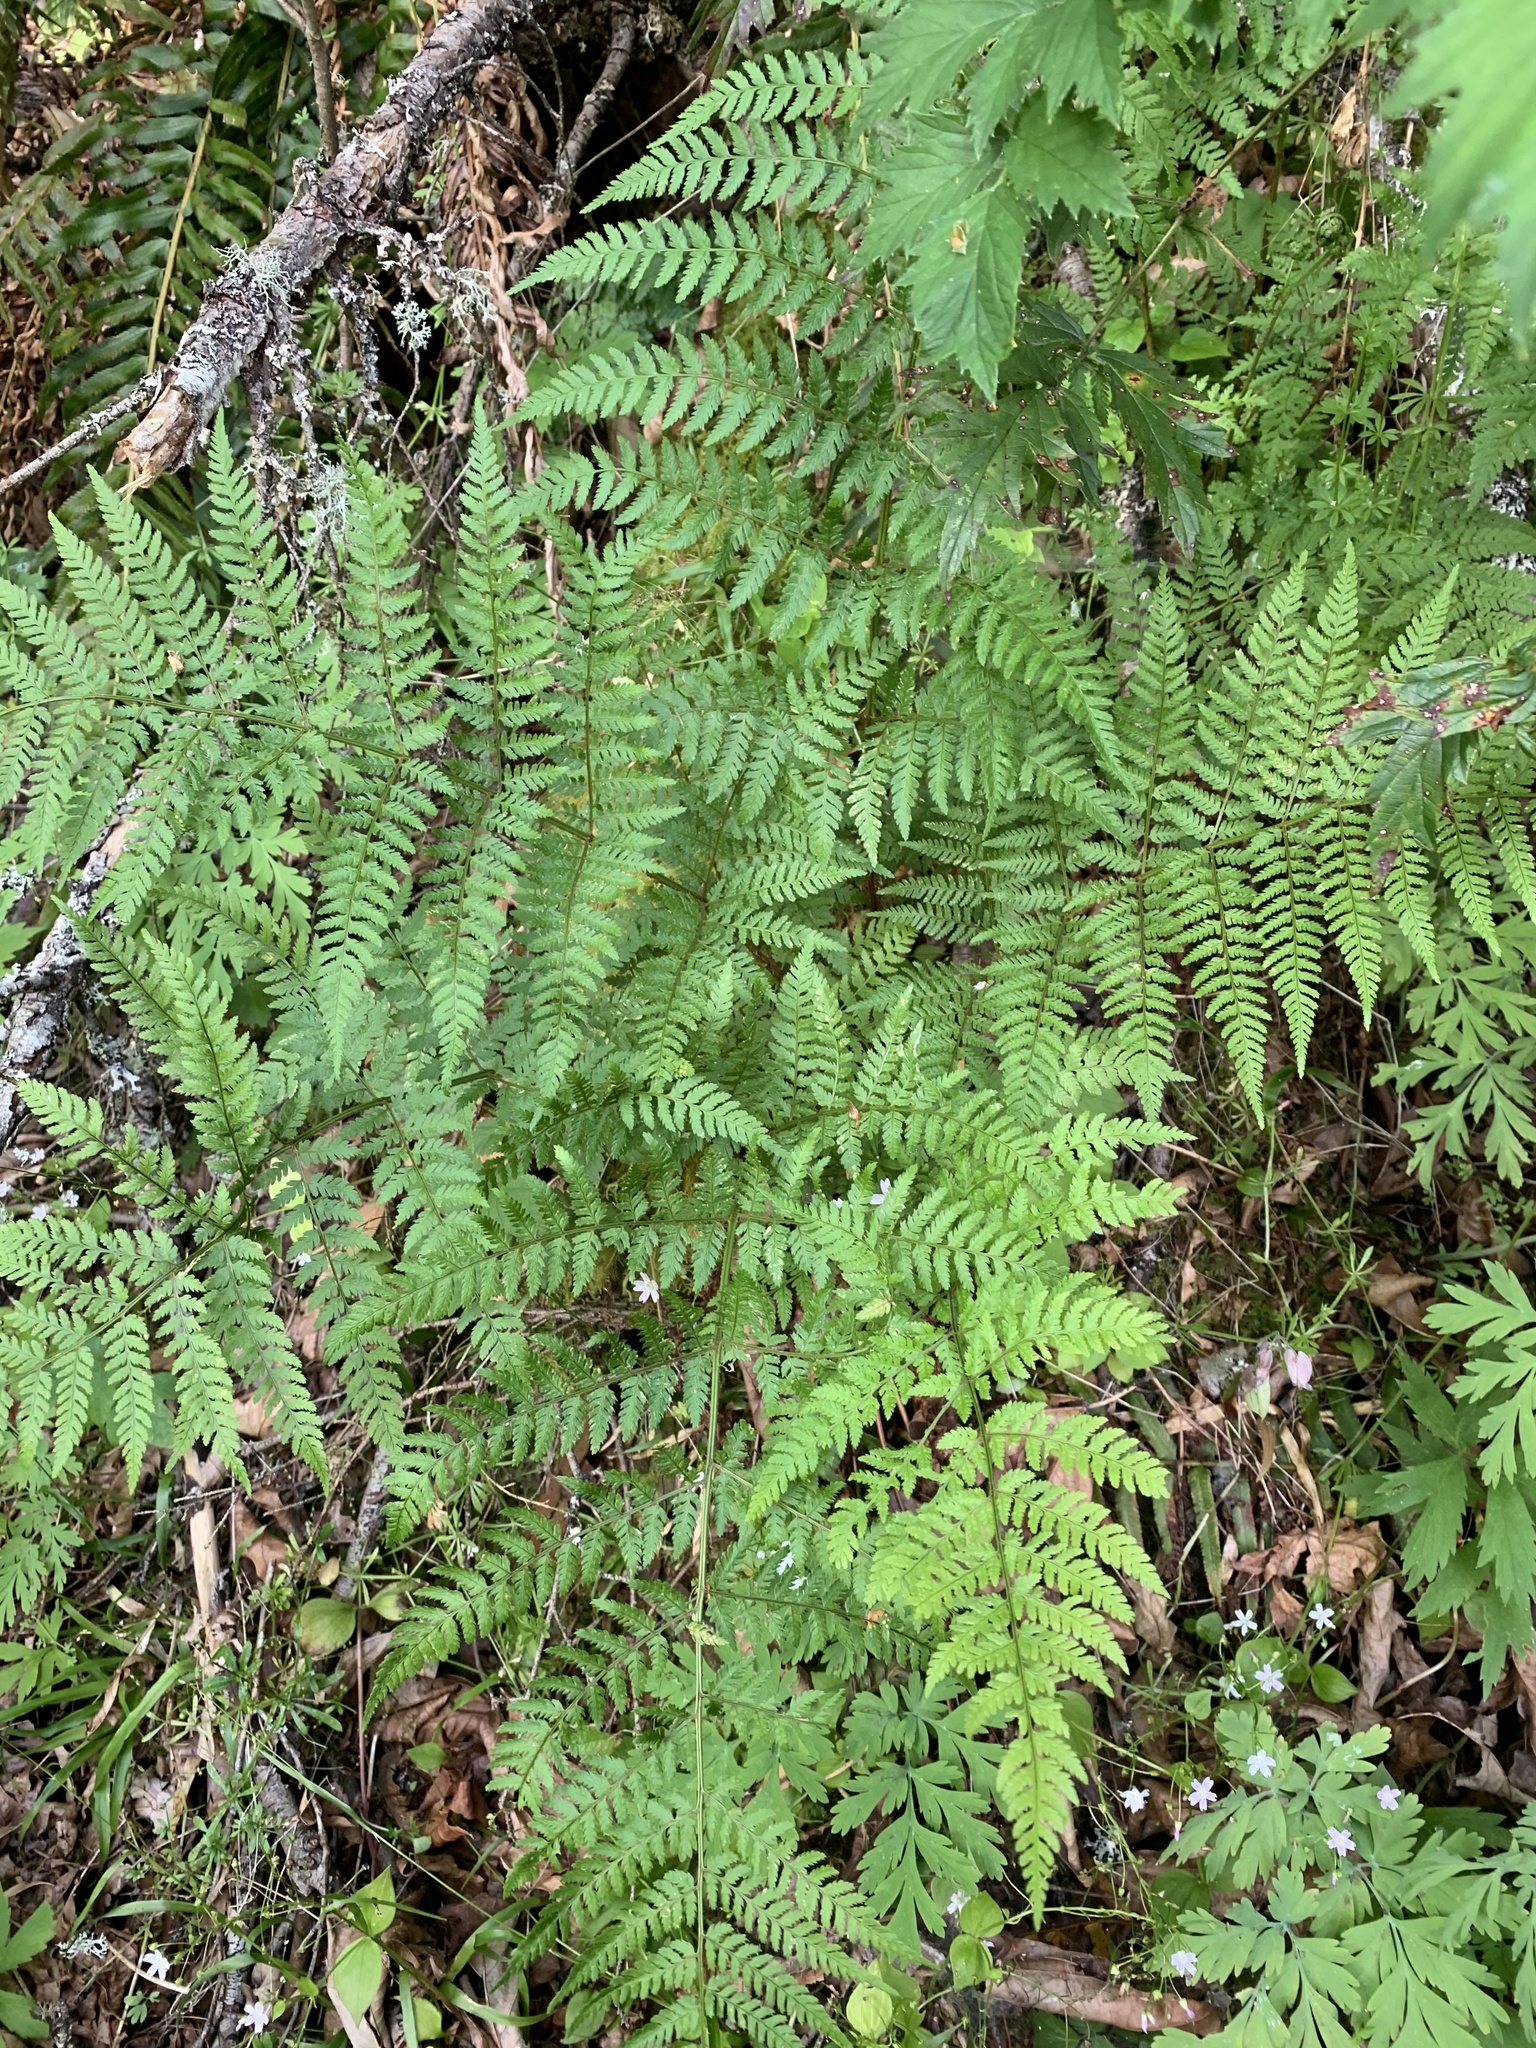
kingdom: Plantae
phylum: Tracheophyta
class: Polypodiopsida
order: Polypodiales
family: Dryopteridaceae
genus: Dryopteris
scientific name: Dryopteris expansa
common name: Northern buckler fern
